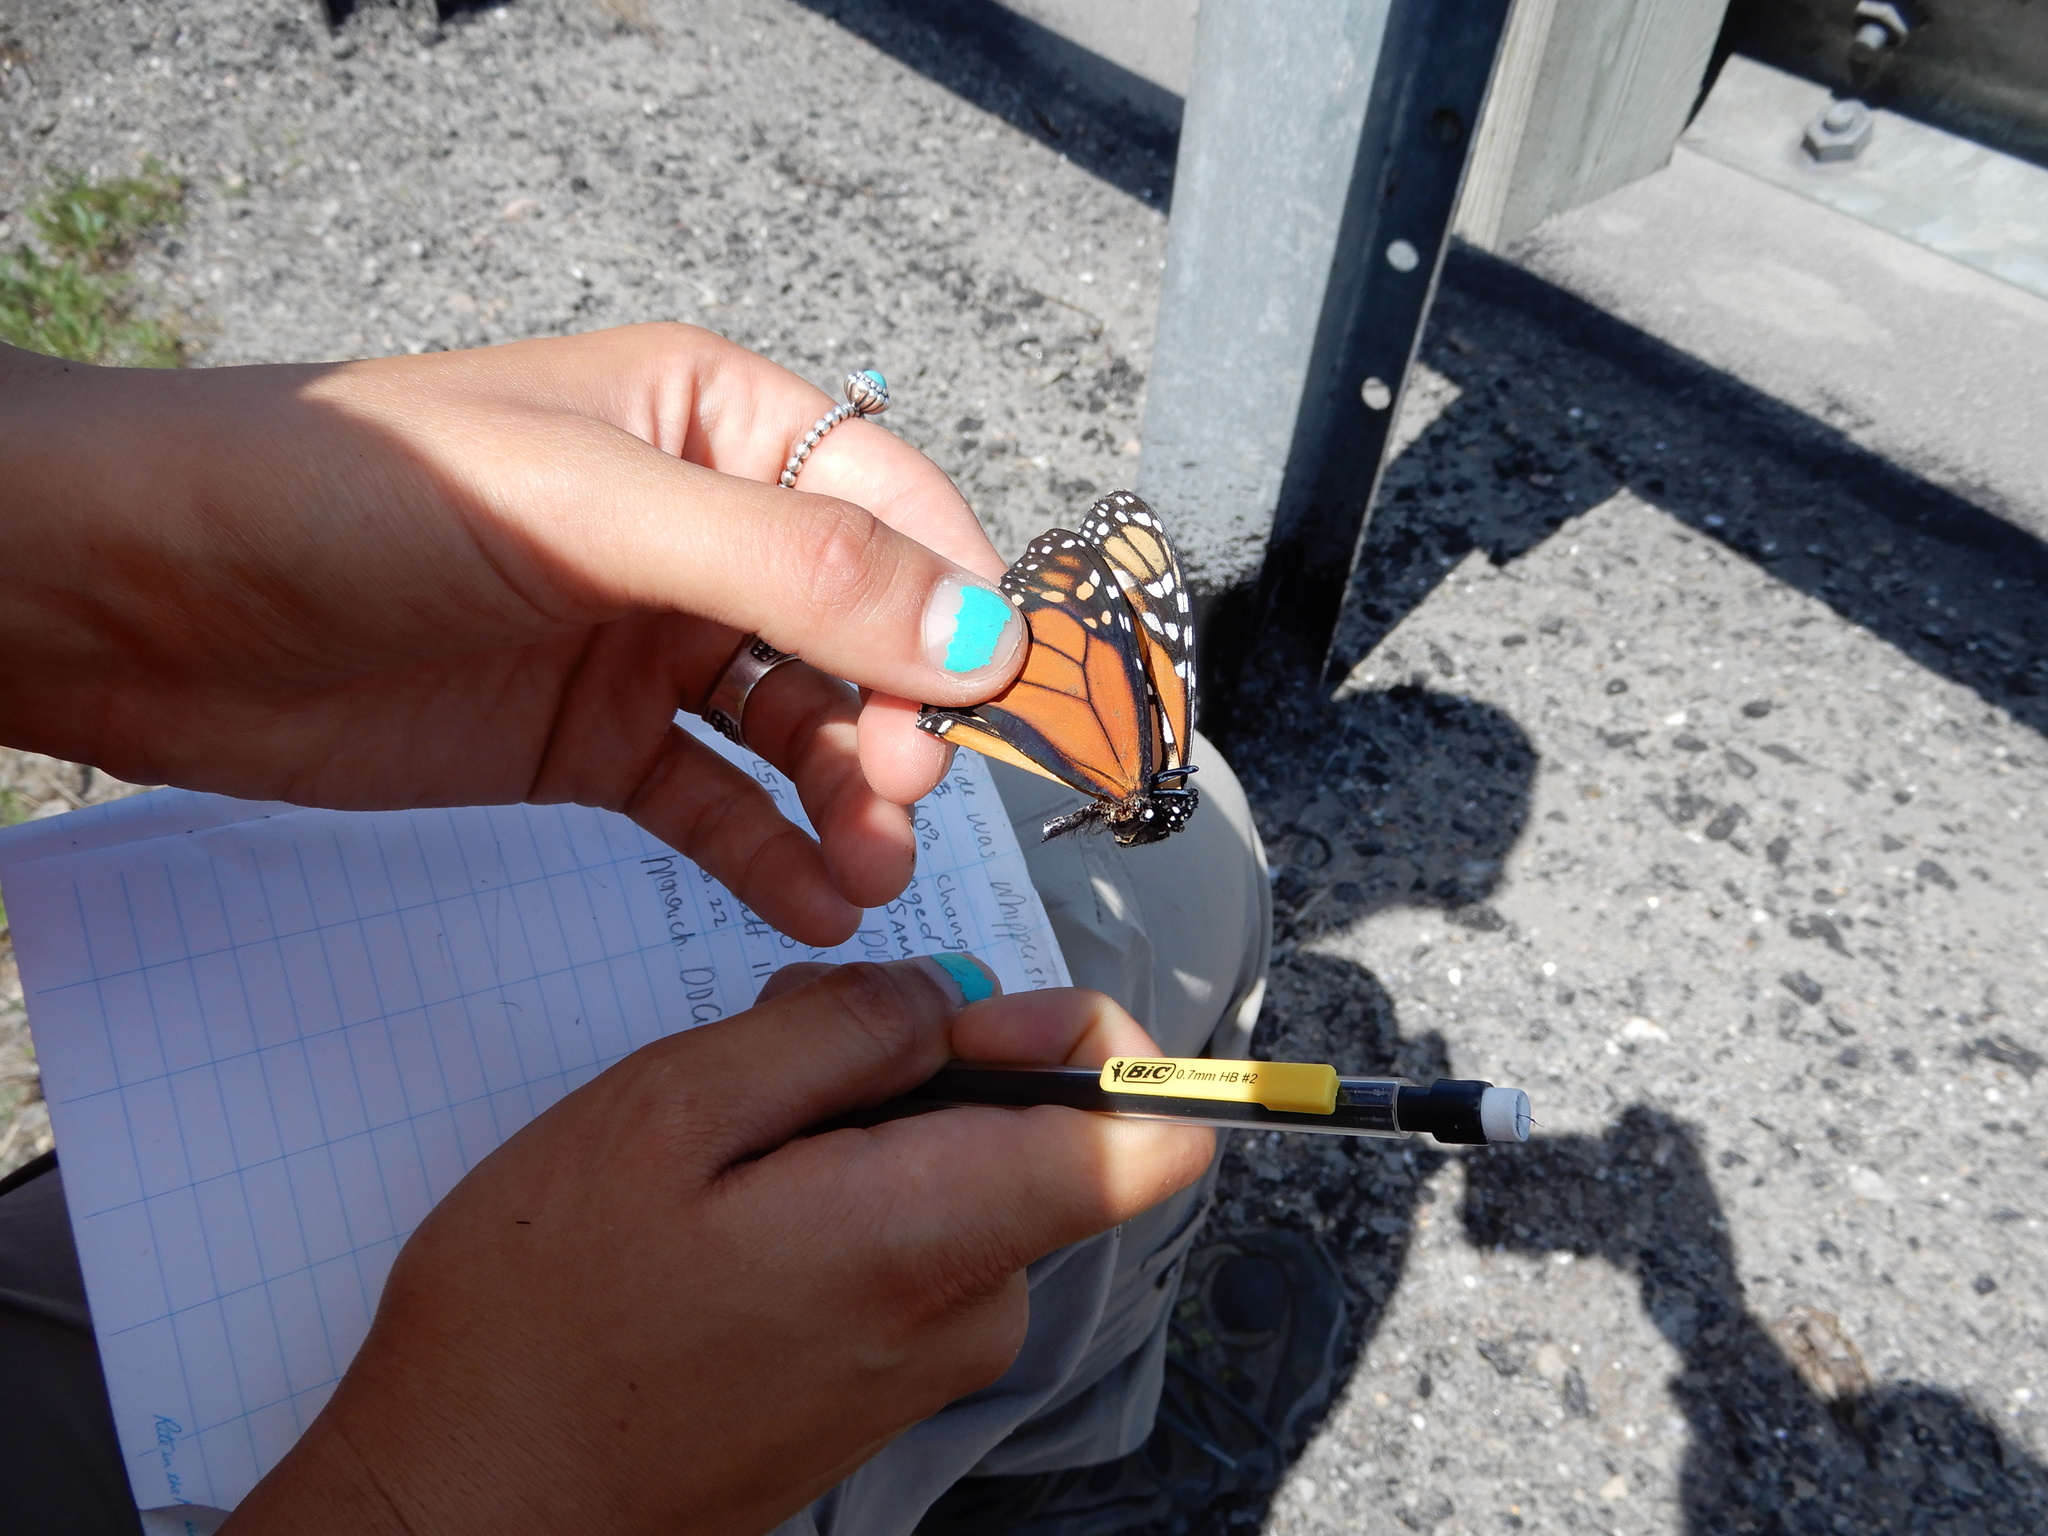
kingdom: Animalia
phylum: Arthropoda
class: Insecta
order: Lepidoptera
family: Nymphalidae
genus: Danaus
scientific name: Danaus plexippus
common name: Monarch
